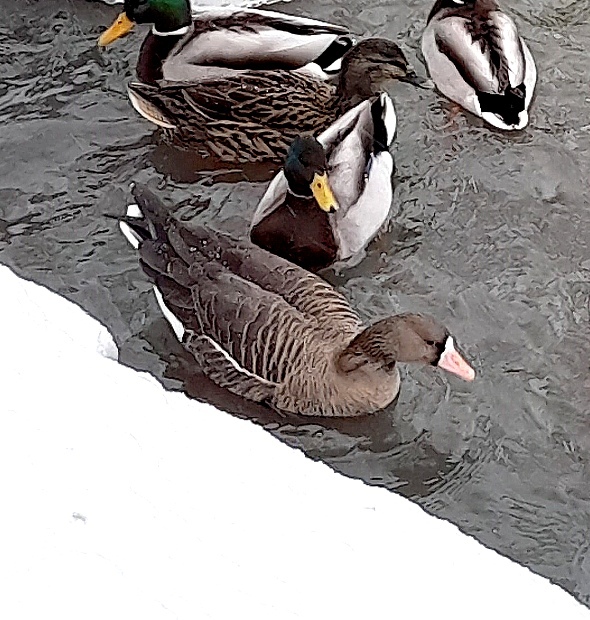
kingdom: Animalia
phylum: Chordata
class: Aves
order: Anseriformes
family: Anatidae
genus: Anser
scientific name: Anser albifrons
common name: Greater white-fronted goose
